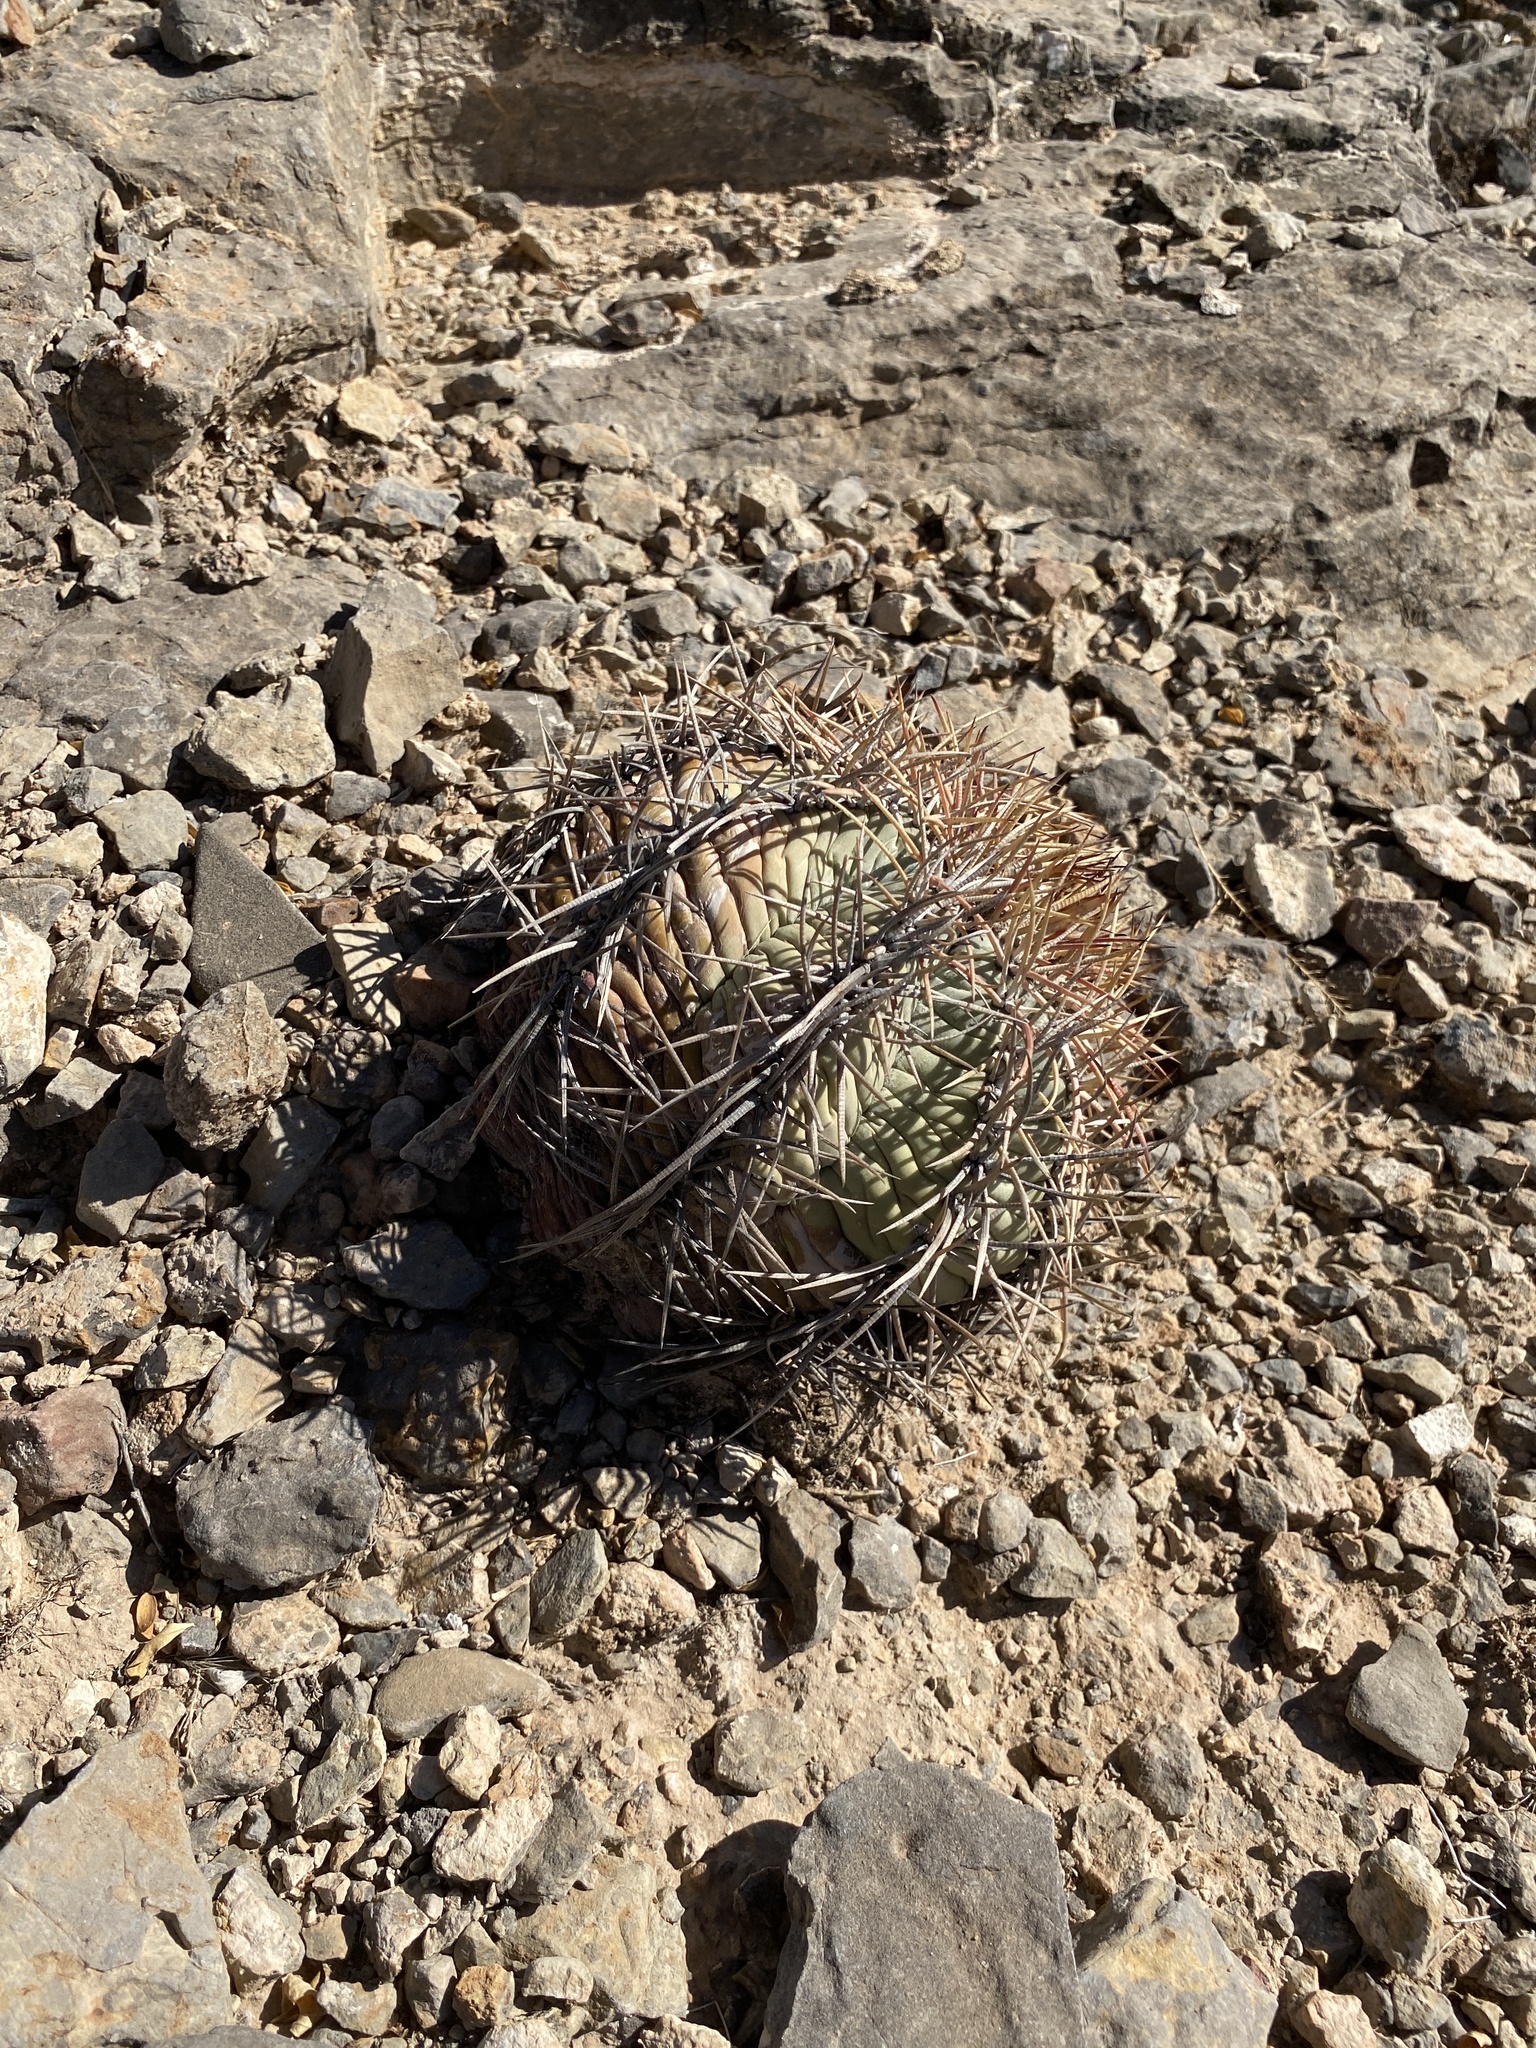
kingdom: Plantae
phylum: Tracheophyta
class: Magnoliopsida
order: Caryophyllales
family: Cactaceae
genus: Echinocactus
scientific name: Echinocactus horizonthalonius
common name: Devilshead
